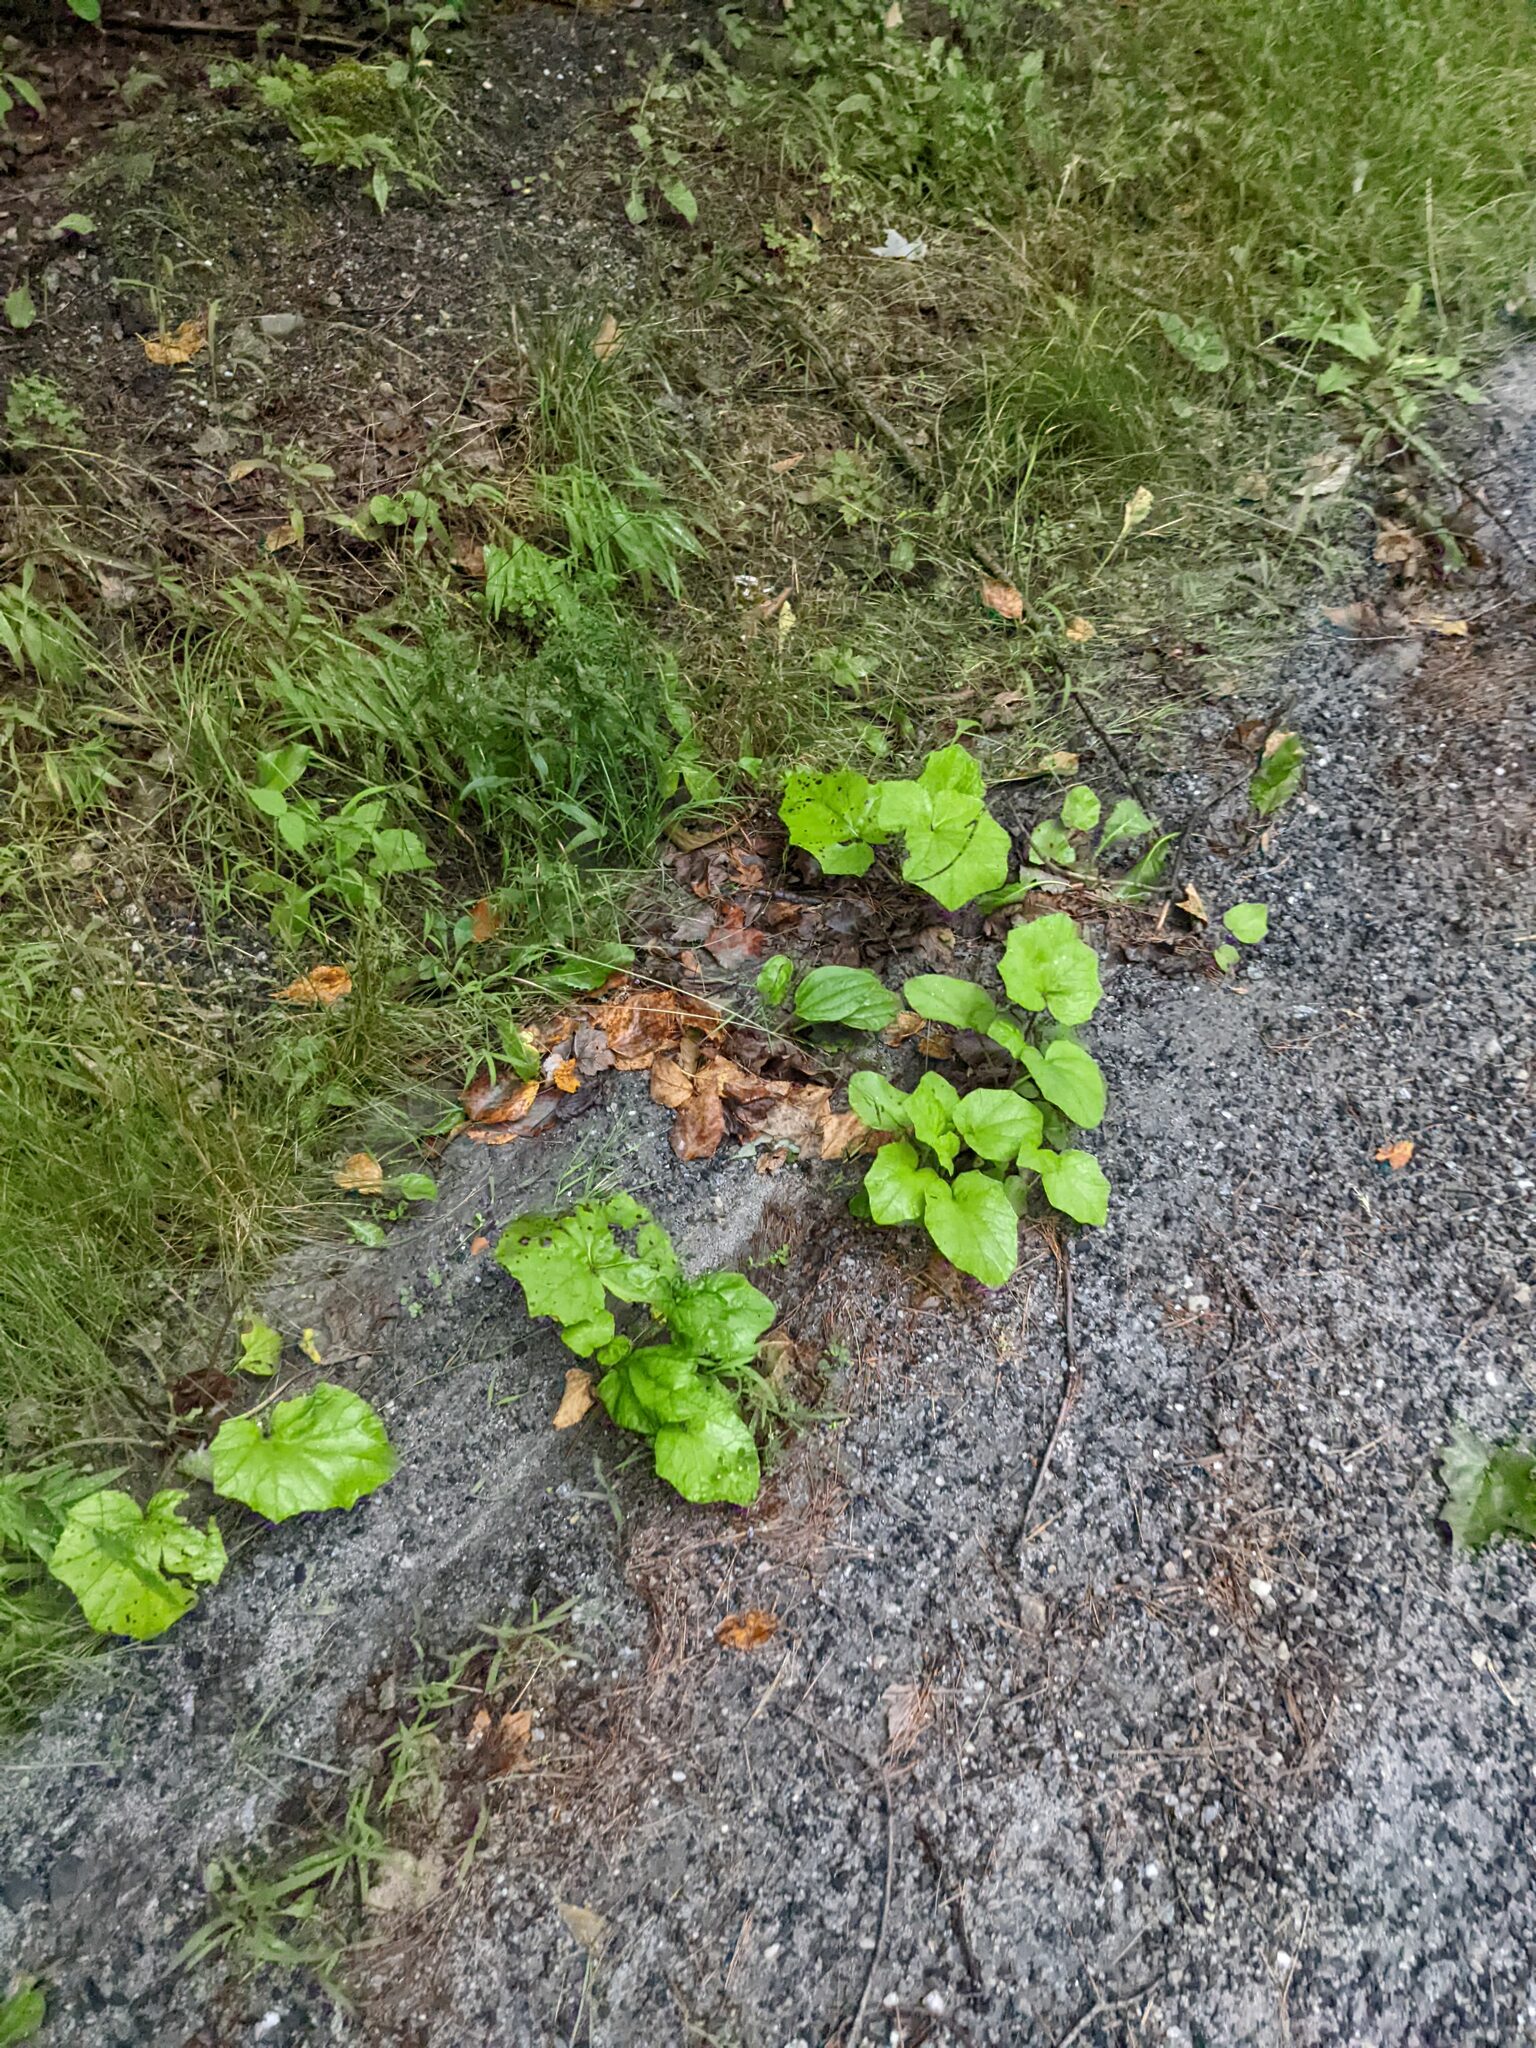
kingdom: Plantae
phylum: Tracheophyta
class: Magnoliopsida
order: Asterales
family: Asteraceae
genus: Tussilago
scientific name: Tussilago farfara
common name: Coltsfoot
